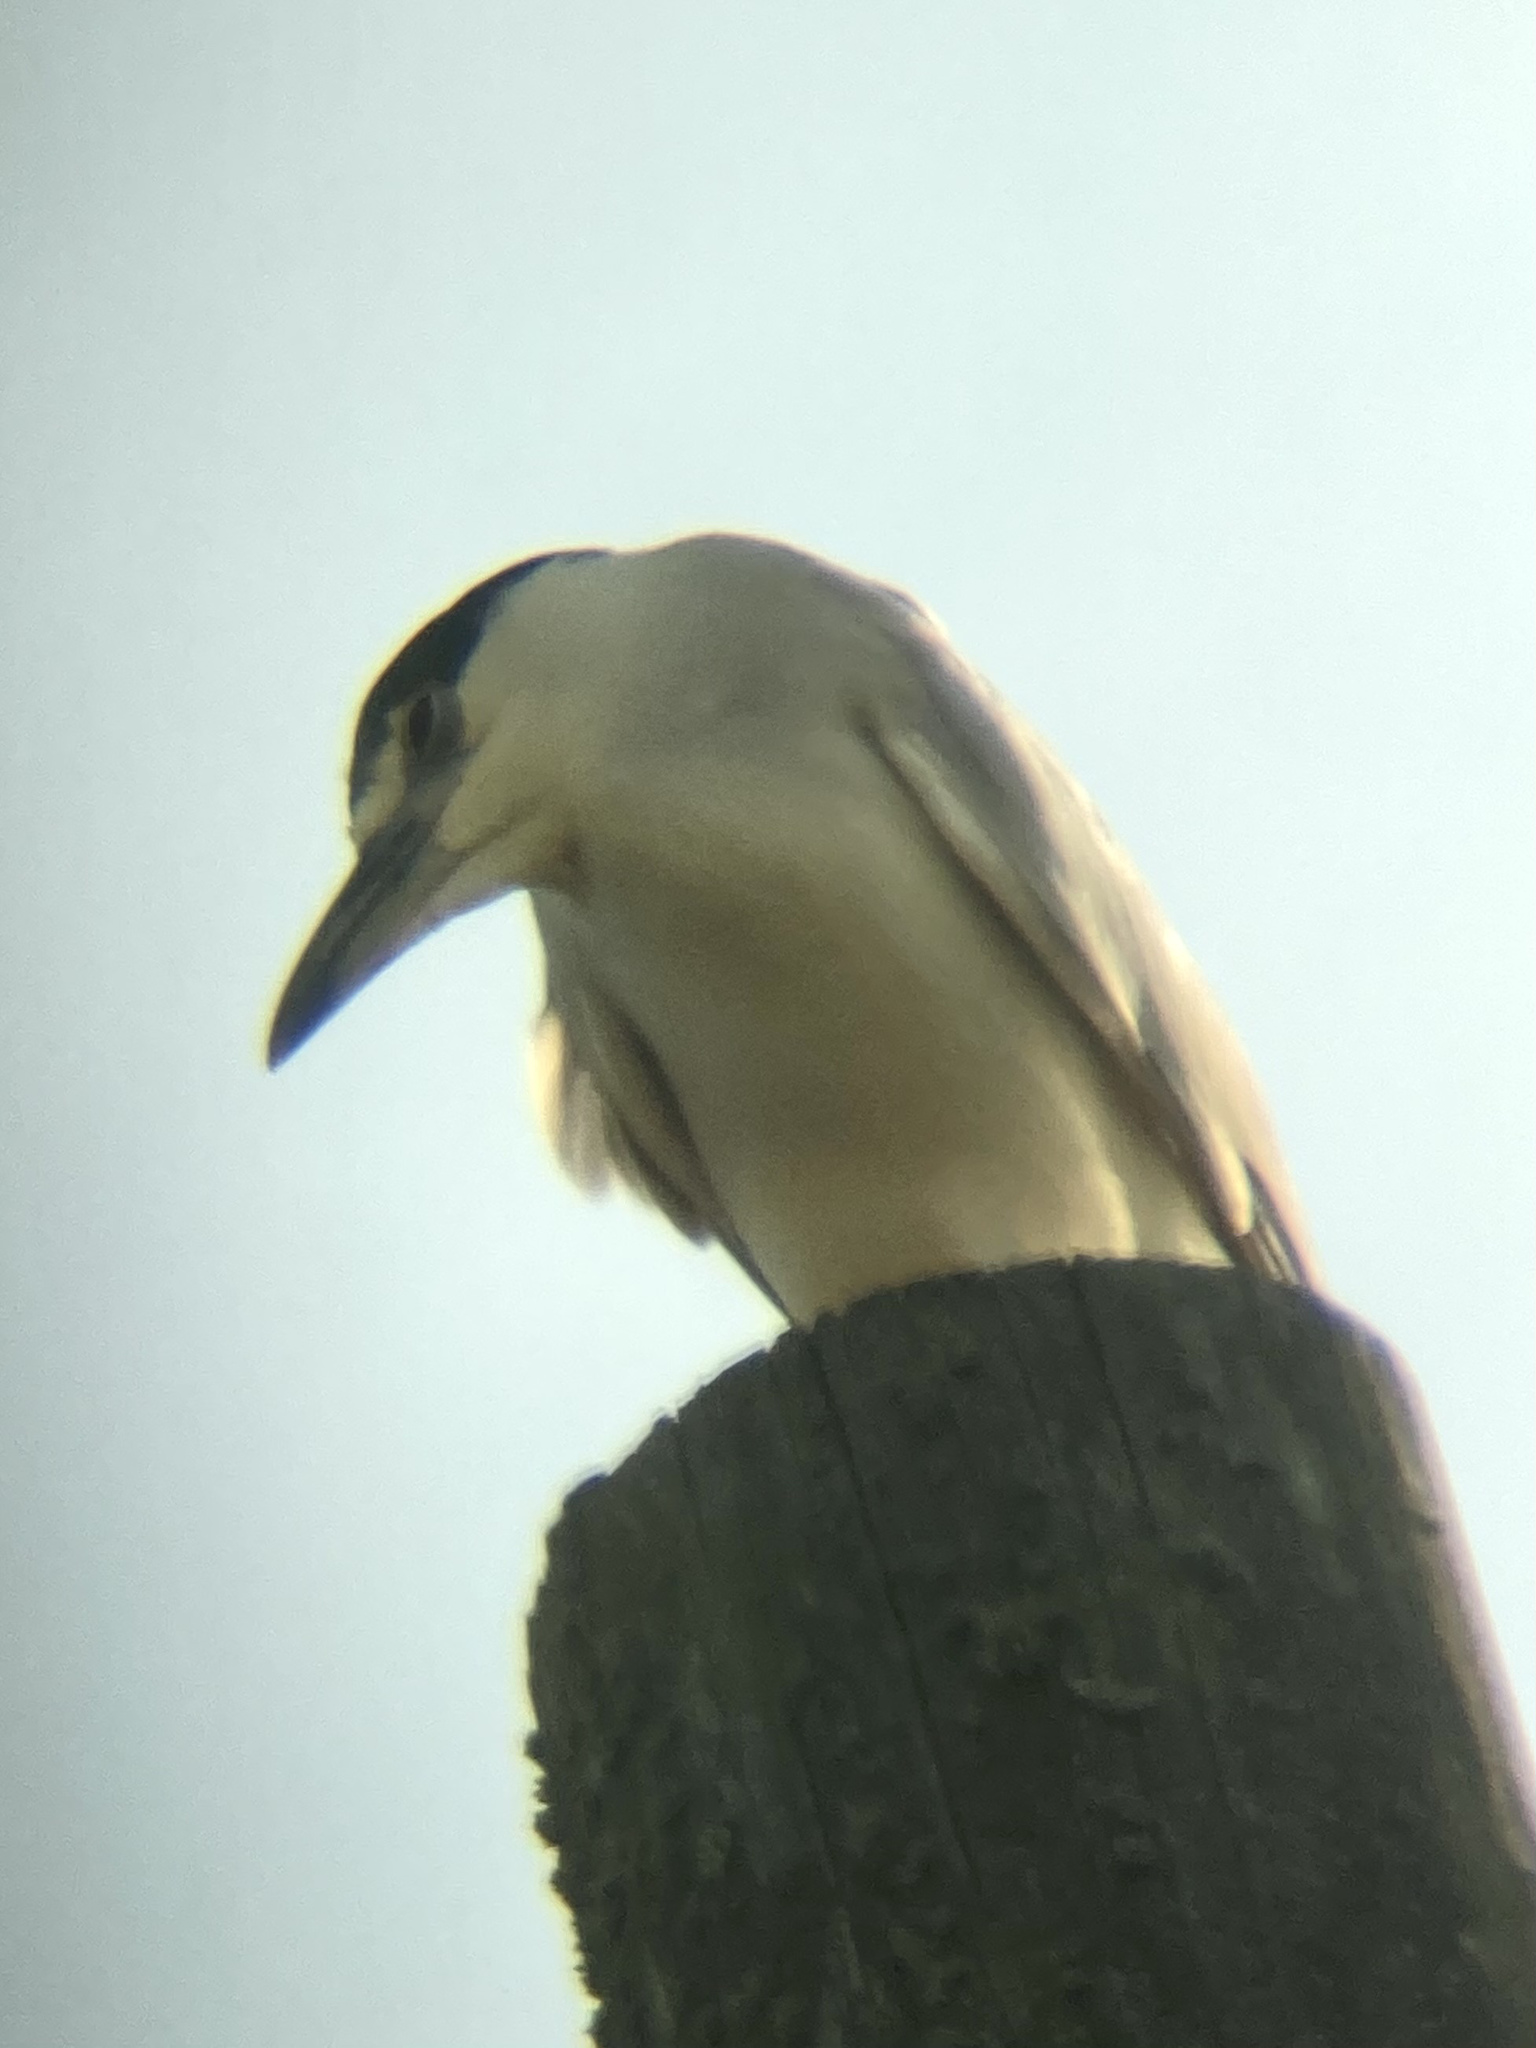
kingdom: Animalia
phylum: Chordata
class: Aves
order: Pelecaniformes
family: Ardeidae
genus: Nycticorax
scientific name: Nycticorax nycticorax
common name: Black-crowned night heron
